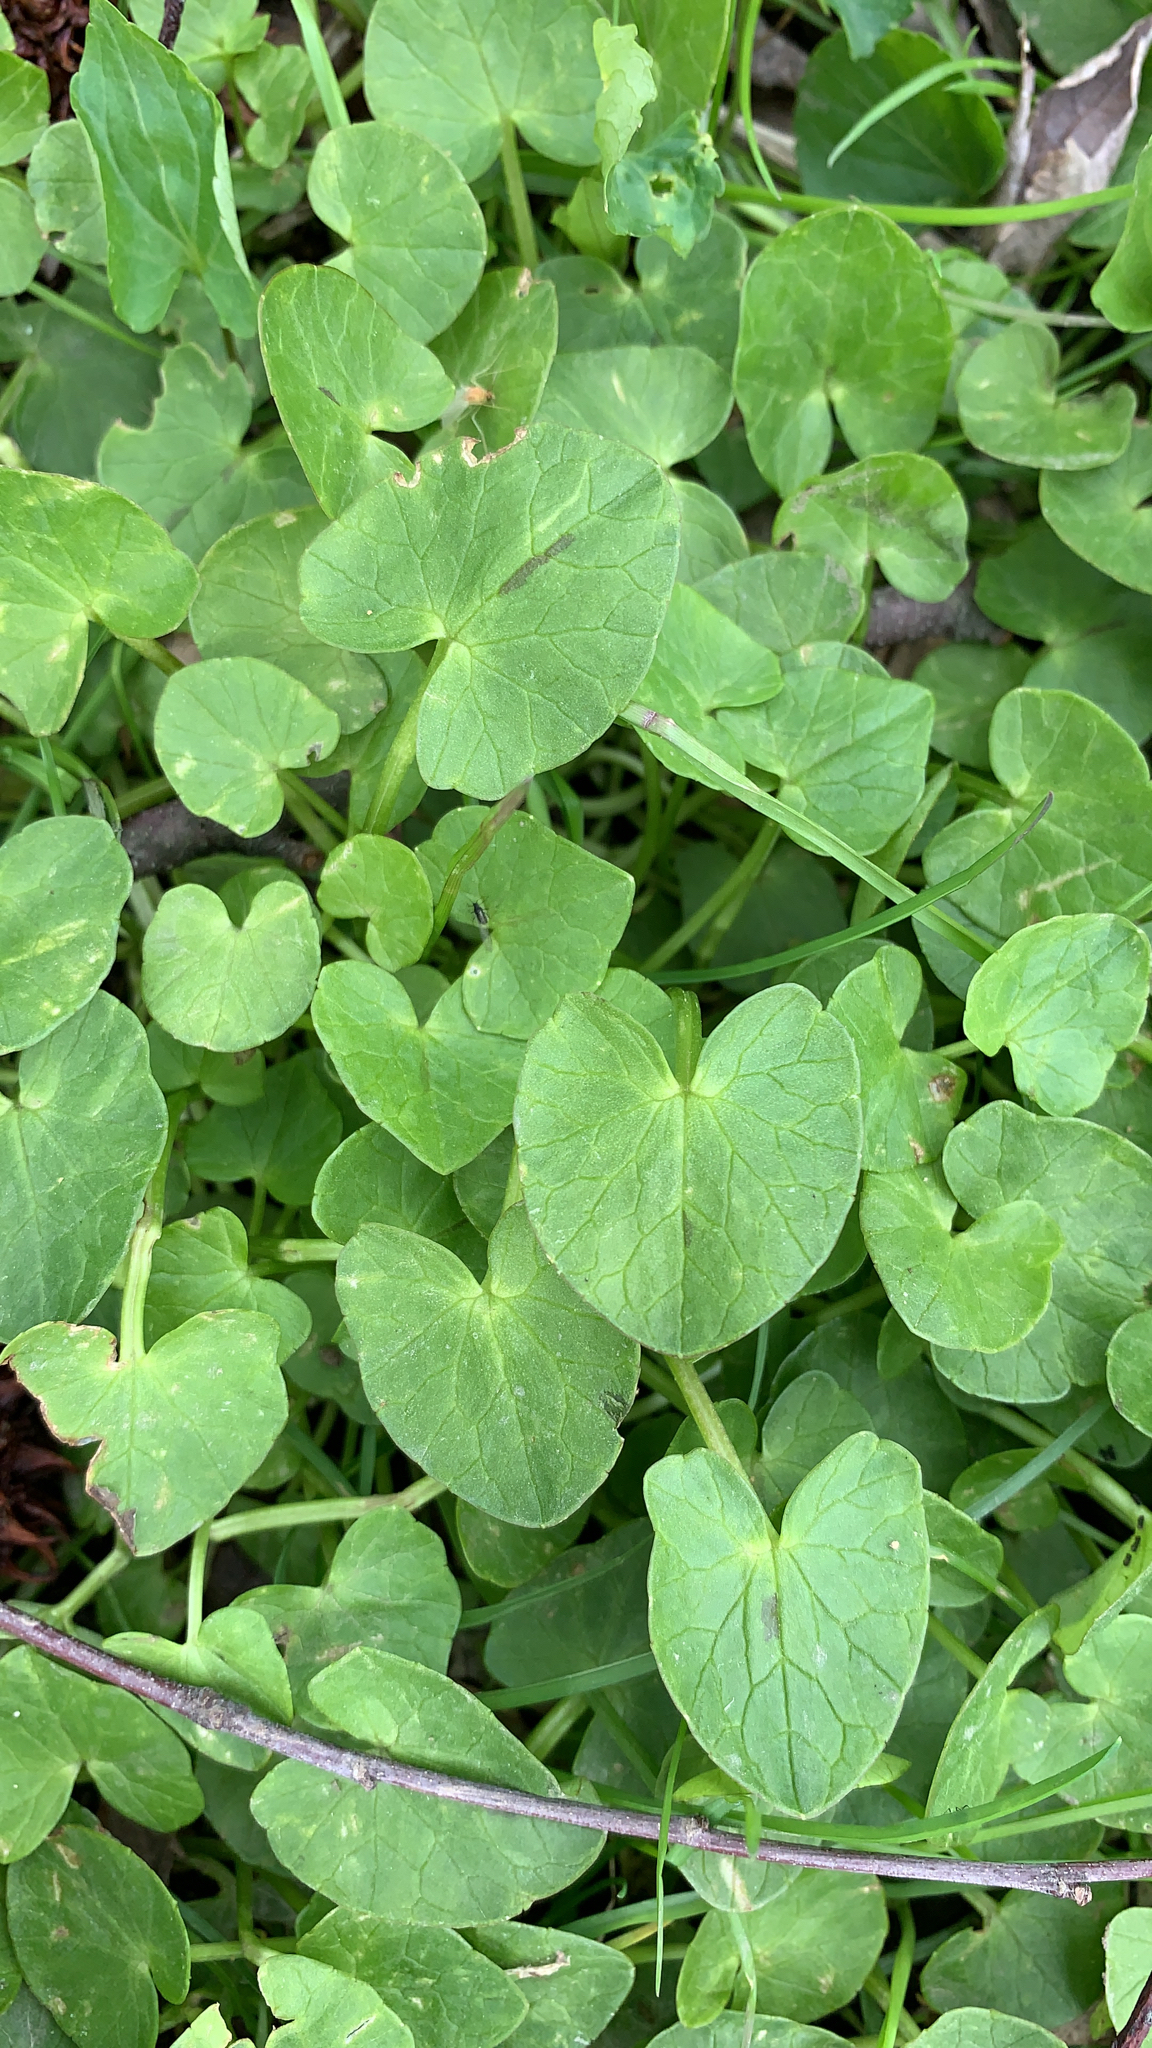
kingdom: Plantae
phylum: Tracheophyta
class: Magnoliopsida
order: Ranunculales
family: Ranunculaceae
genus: Ficaria
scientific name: Ficaria verna
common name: Lesser celandine
